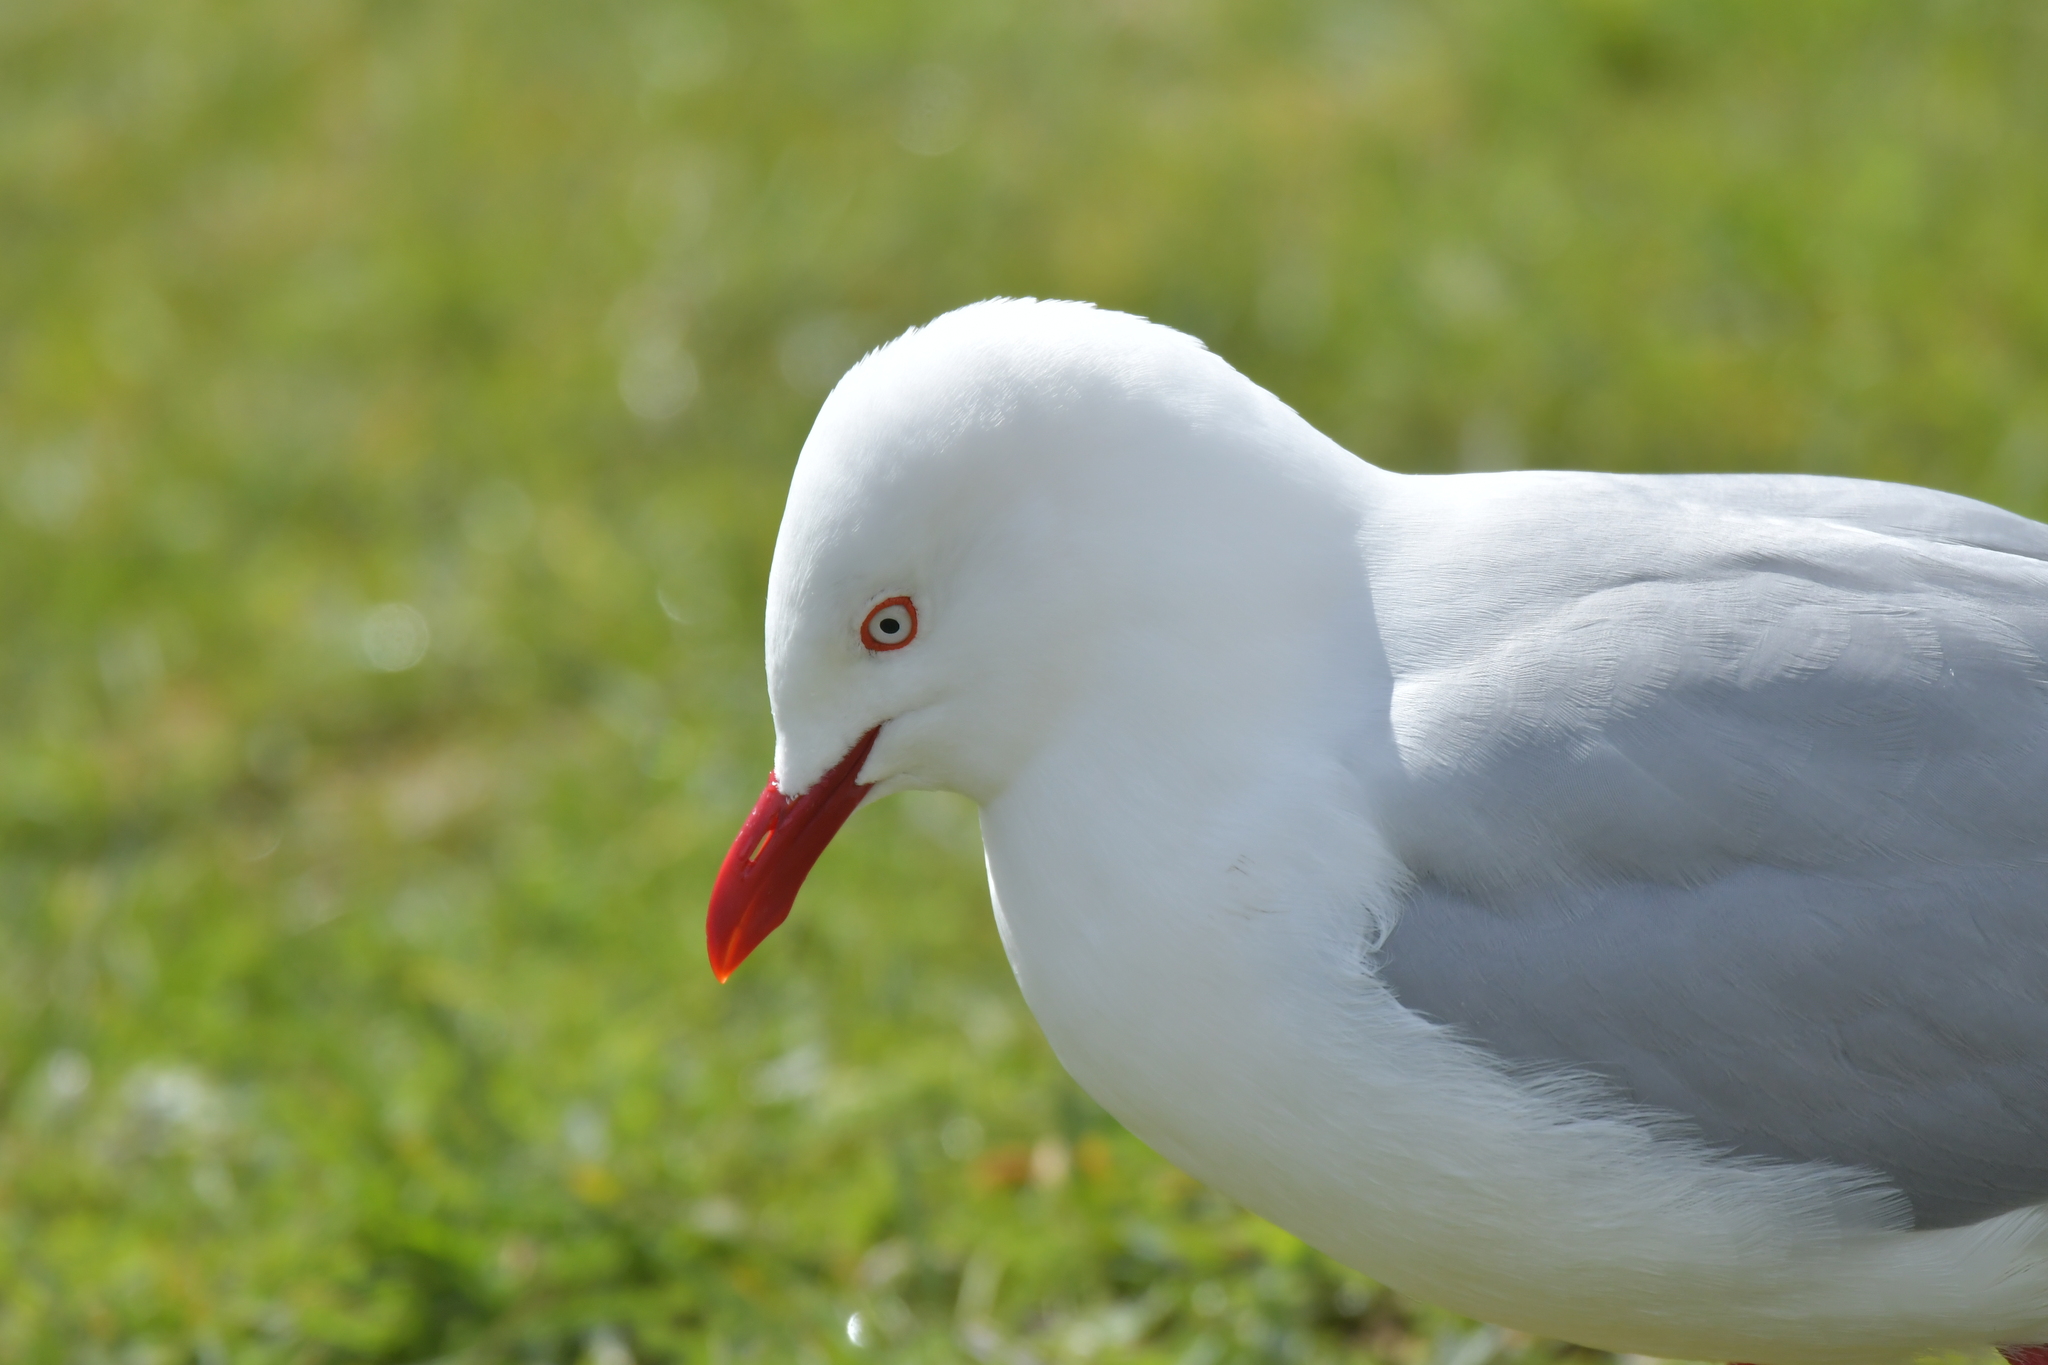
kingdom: Animalia
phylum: Chordata
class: Aves
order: Charadriiformes
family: Laridae
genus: Chroicocephalus
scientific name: Chroicocephalus novaehollandiae
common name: Silver gull
